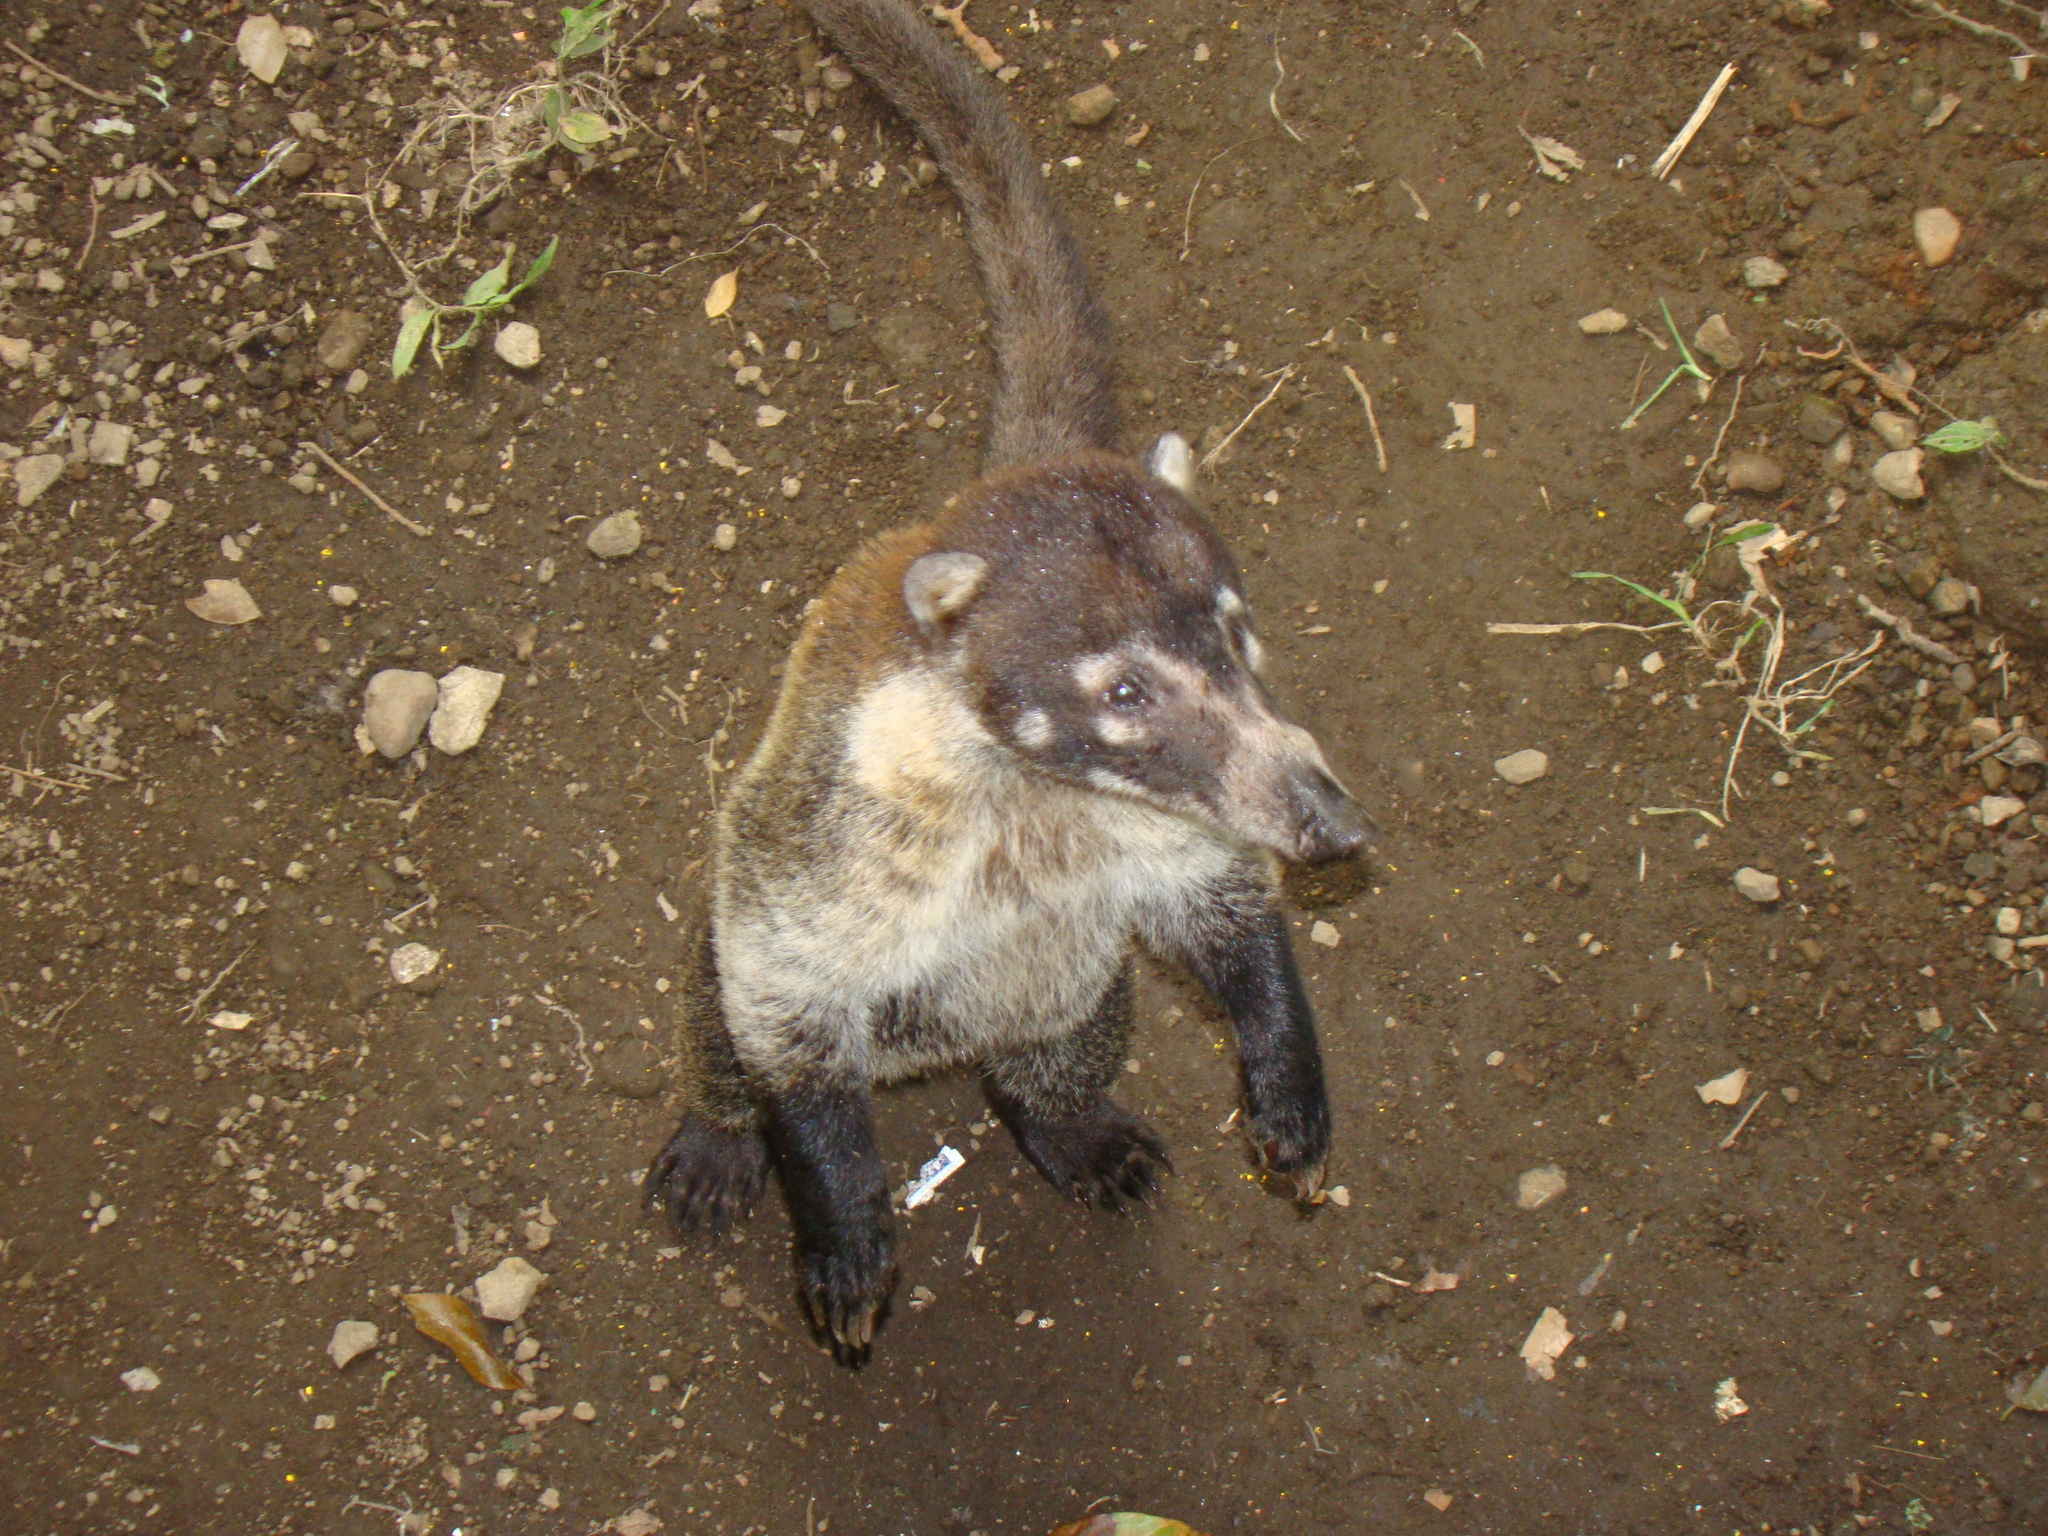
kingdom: Animalia
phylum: Chordata
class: Mammalia
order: Carnivora
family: Procyonidae
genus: Nasua
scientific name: Nasua narica
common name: White-nosed coati
